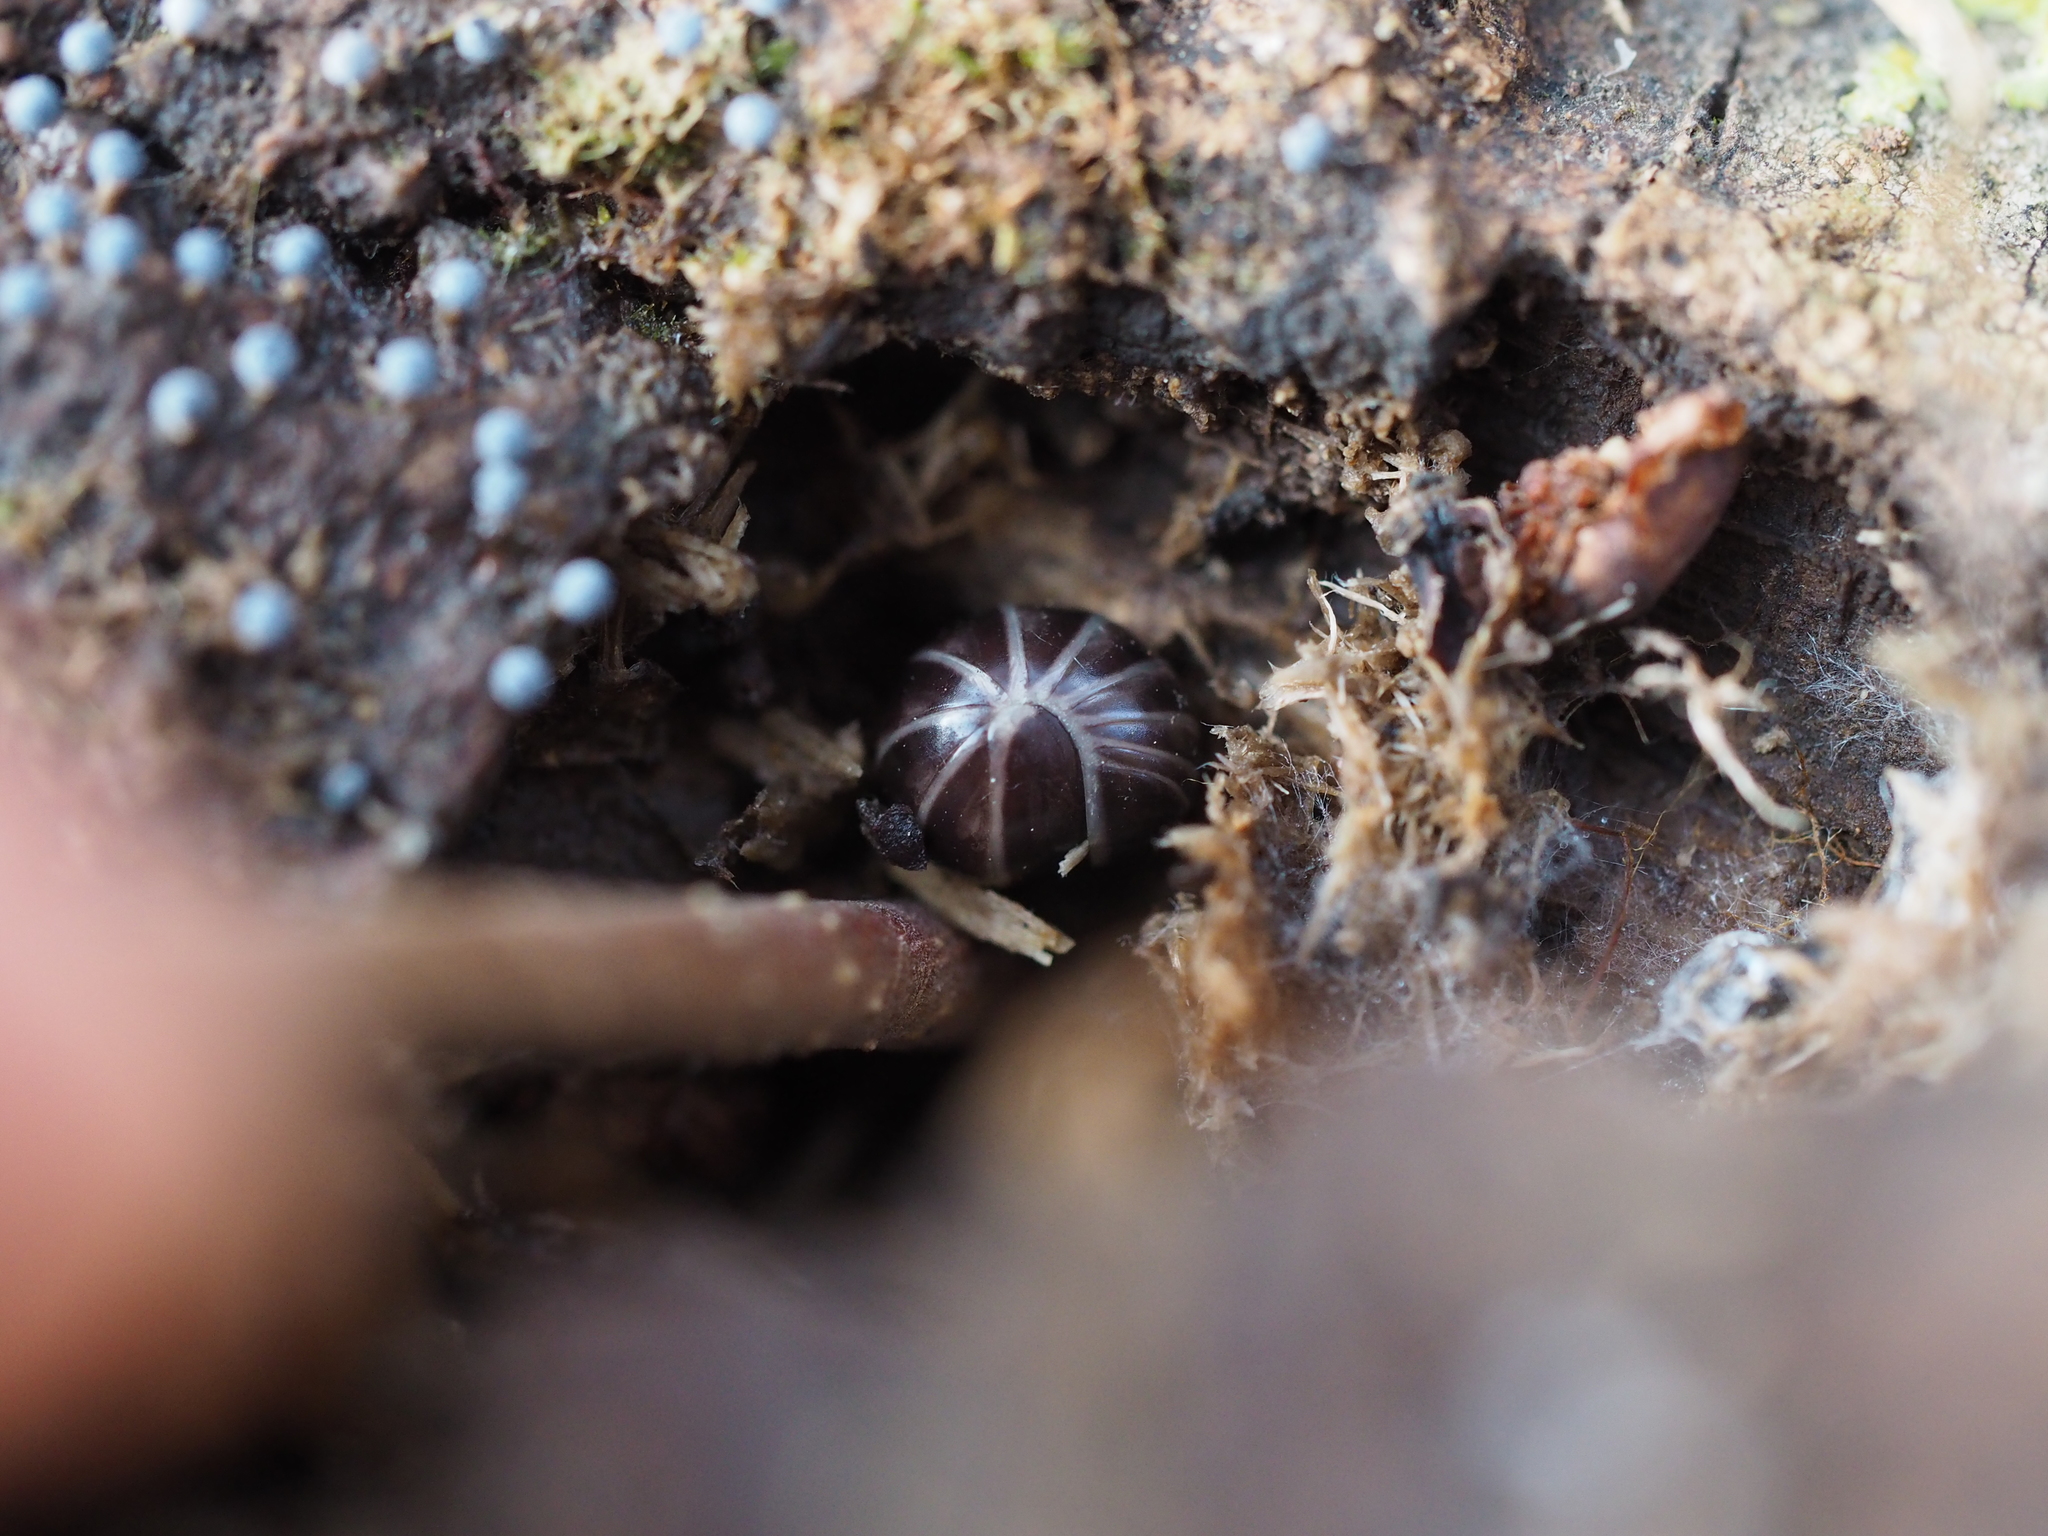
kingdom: Animalia
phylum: Arthropoda
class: Diplopoda
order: Glomerida
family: Glomeridae
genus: Glomeris
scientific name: Glomeris marginata
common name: Bordered pill millipede
